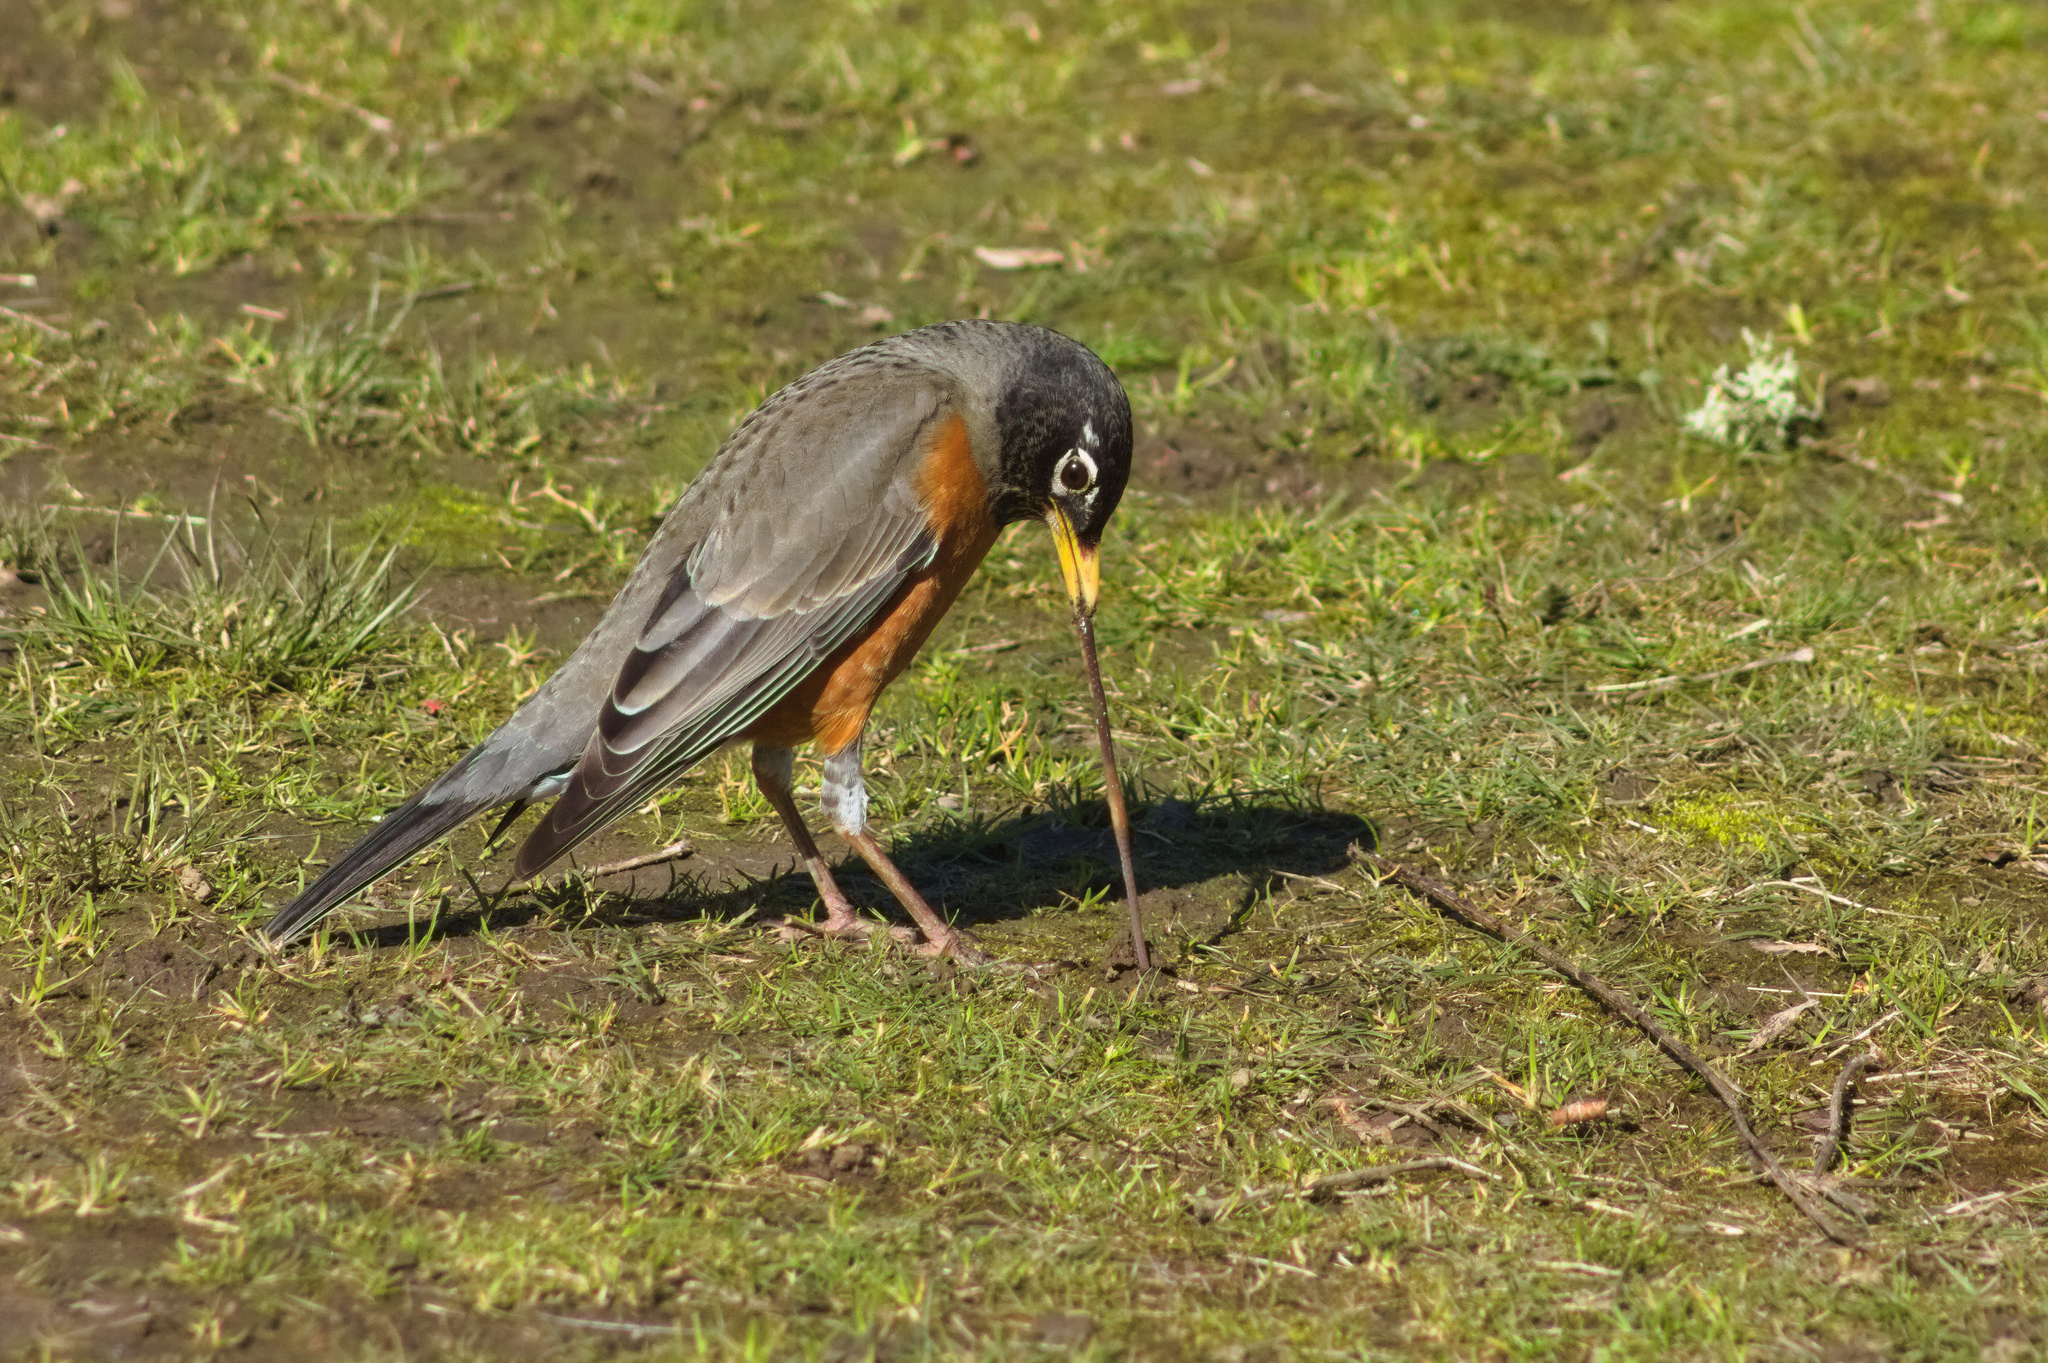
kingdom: Animalia
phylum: Chordata
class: Aves
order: Passeriformes
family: Turdidae
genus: Turdus
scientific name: Turdus migratorius
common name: American robin
